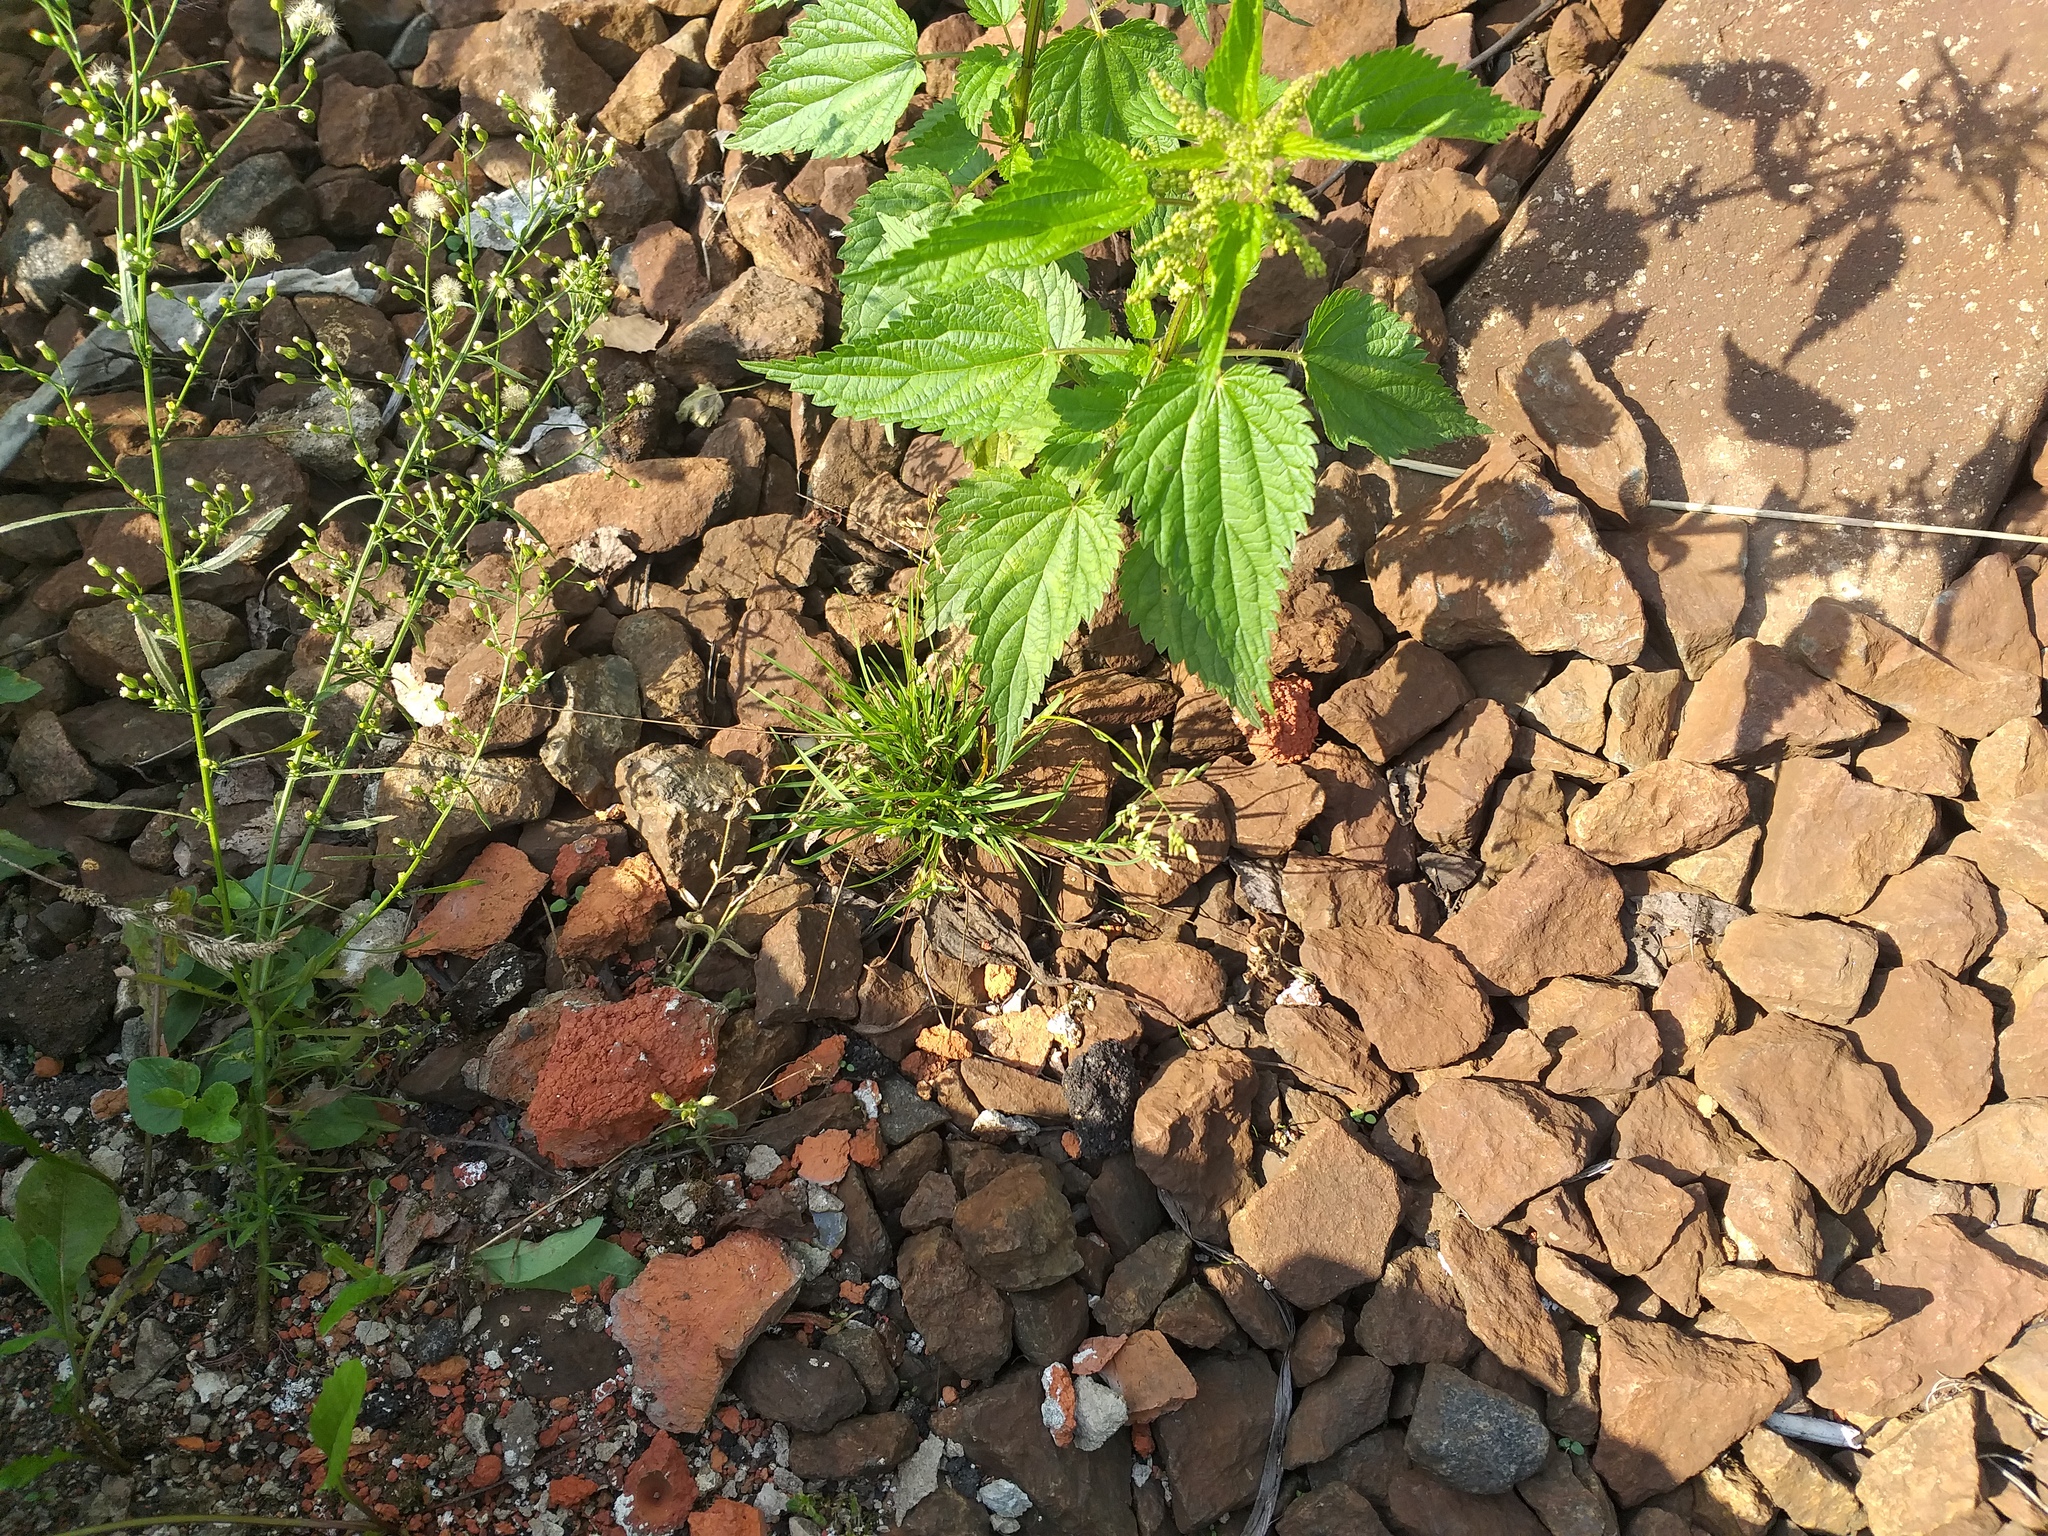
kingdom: Plantae
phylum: Tracheophyta
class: Liliopsida
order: Poales
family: Poaceae
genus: Poa
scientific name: Poa annua
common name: Annual bluegrass
